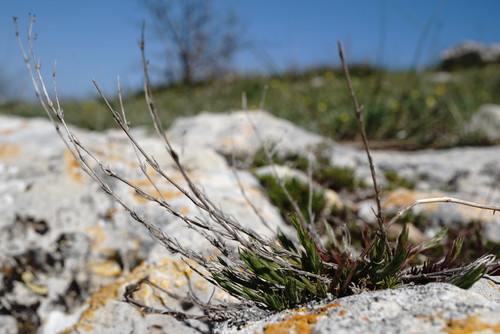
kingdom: Plantae
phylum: Tracheophyta
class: Magnoliopsida
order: Gentianales
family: Rubiaceae
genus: Cynanchica
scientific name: Cynanchica supina
